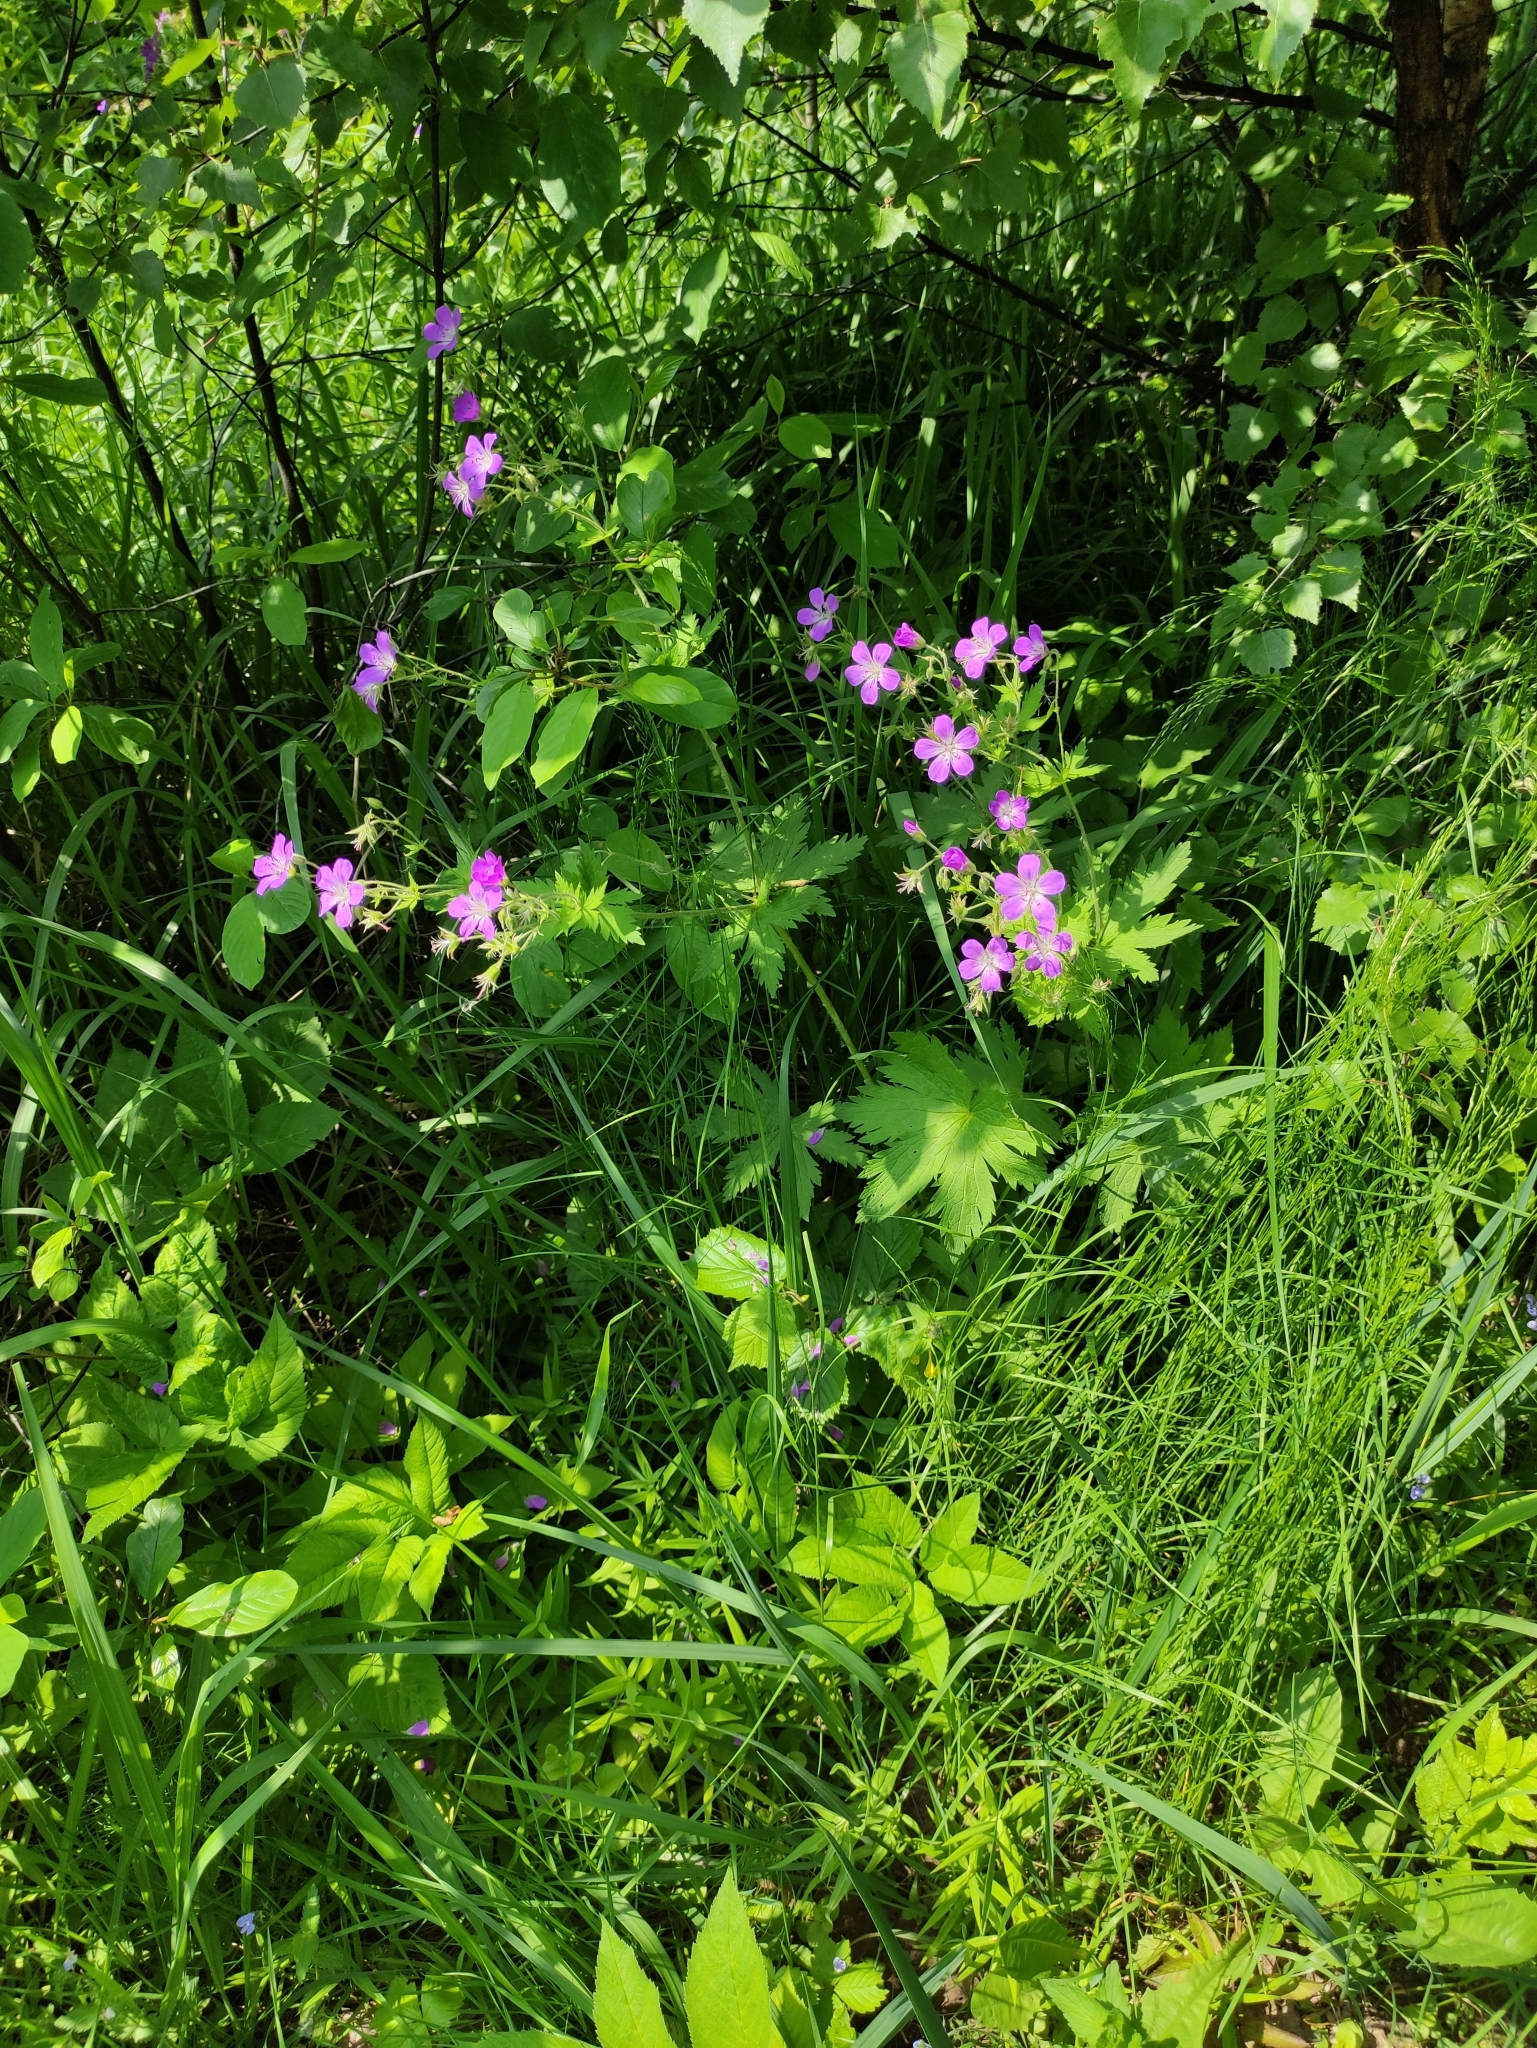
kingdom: Plantae
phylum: Tracheophyta
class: Magnoliopsida
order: Geraniales
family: Geraniaceae
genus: Geranium
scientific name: Geranium sylvaticum
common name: Wood crane's-bill
